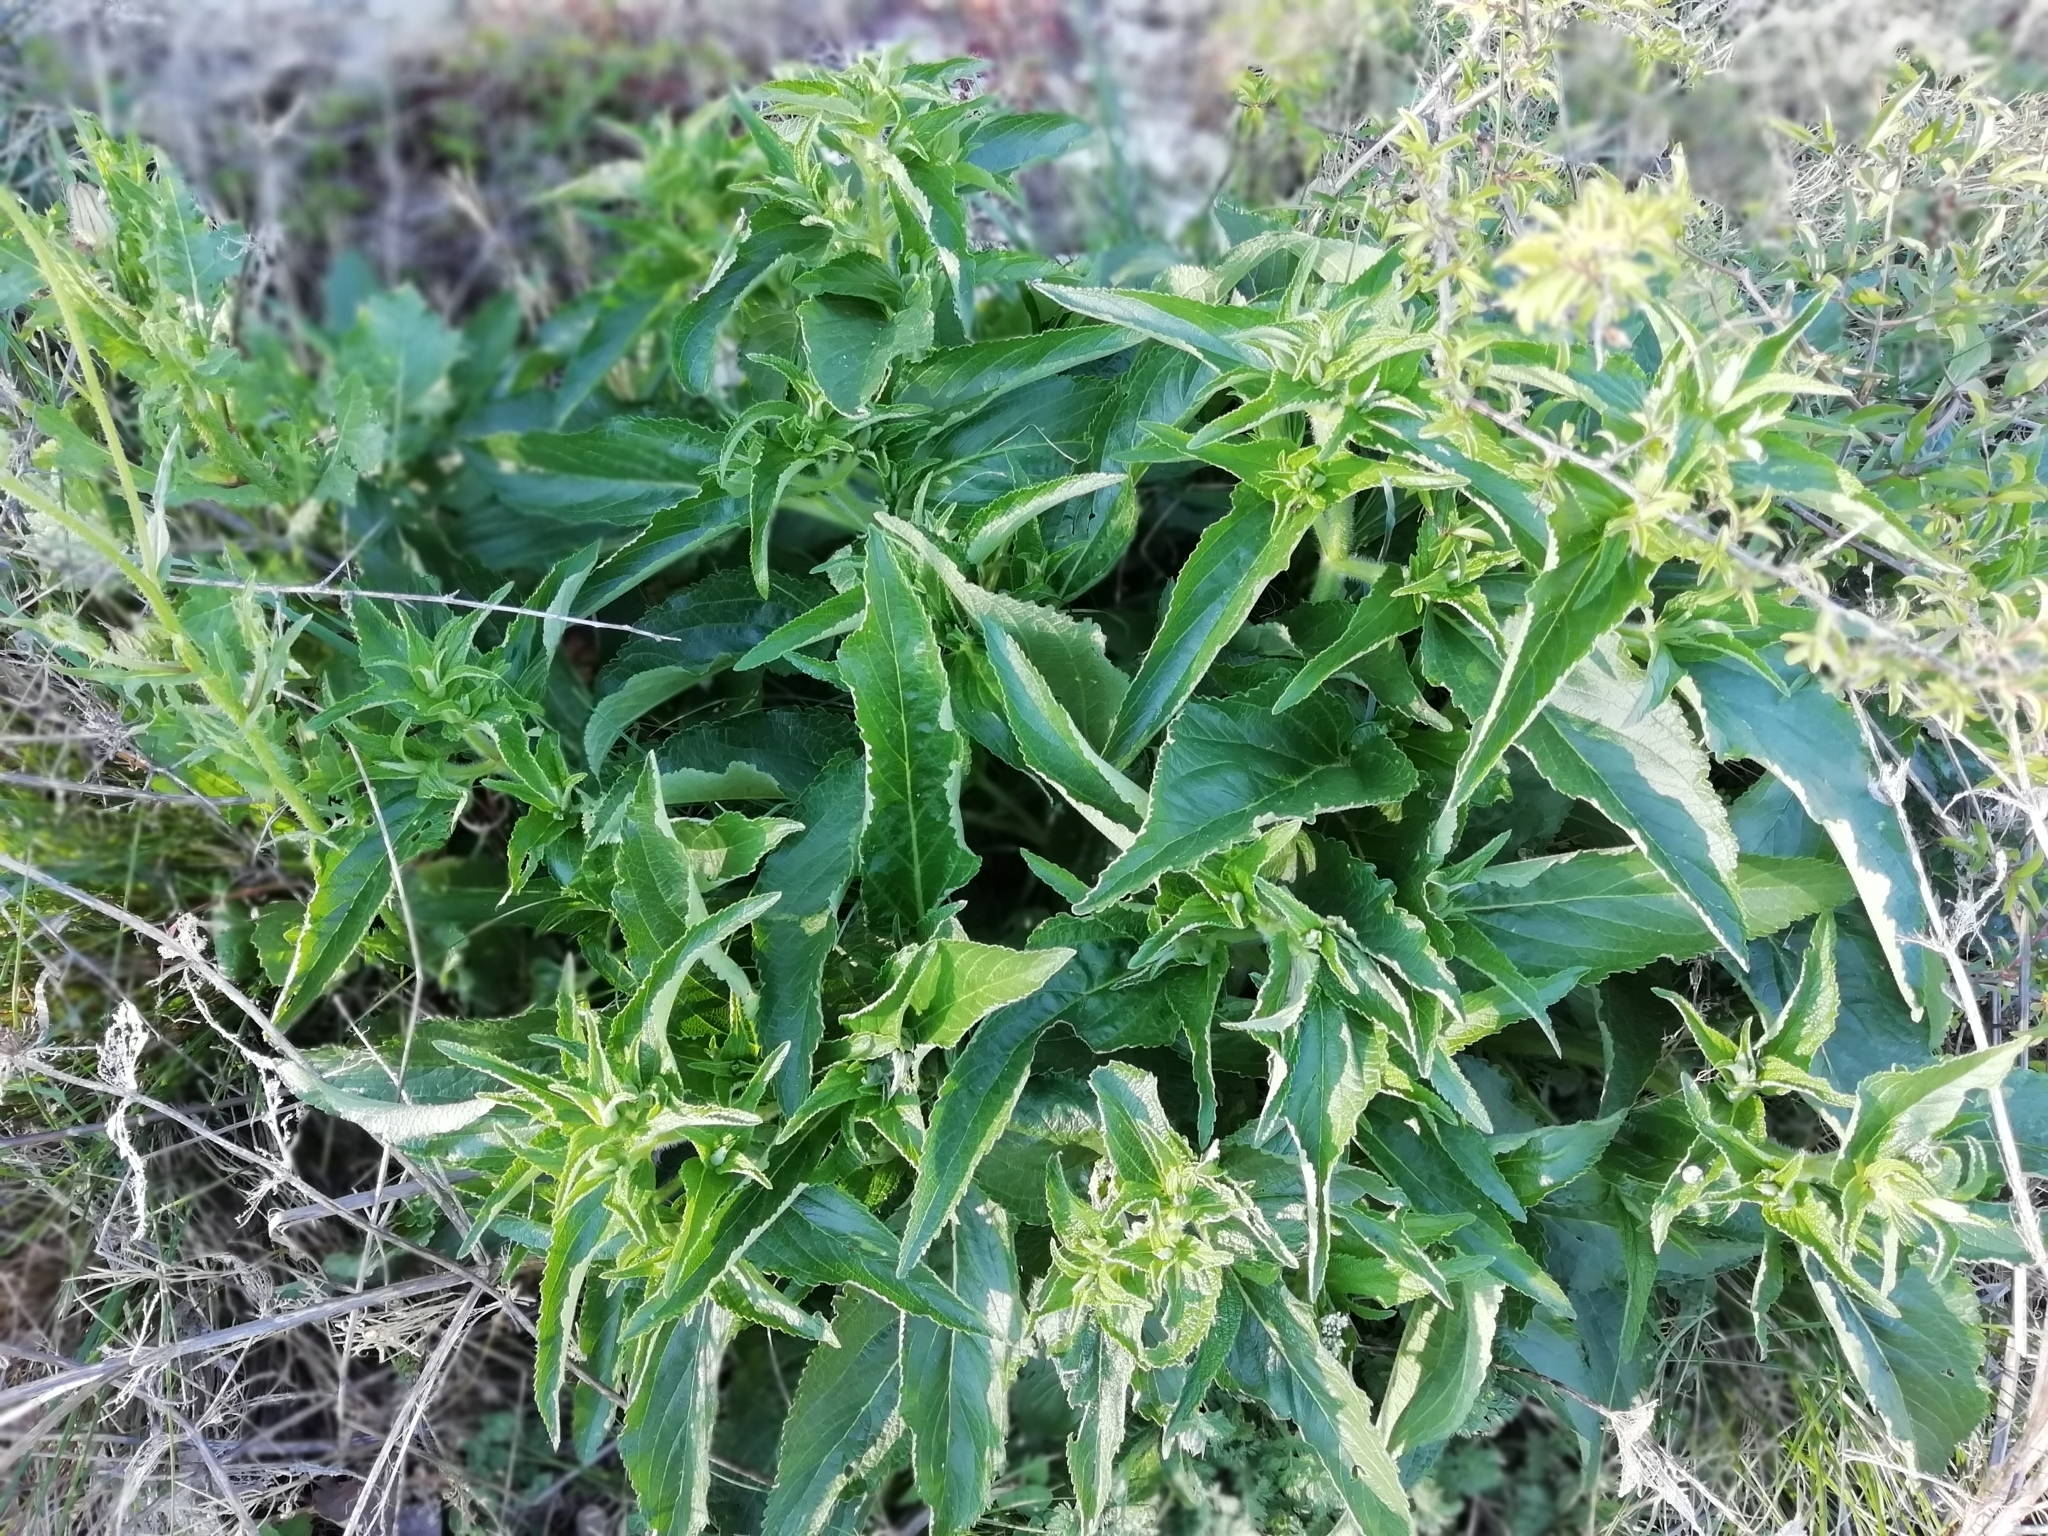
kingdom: Plantae
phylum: Tracheophyta
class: Magnoliopsida
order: Lamiales
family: Lamiaceae
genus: Phlomis
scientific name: Phlomis herba-venti
